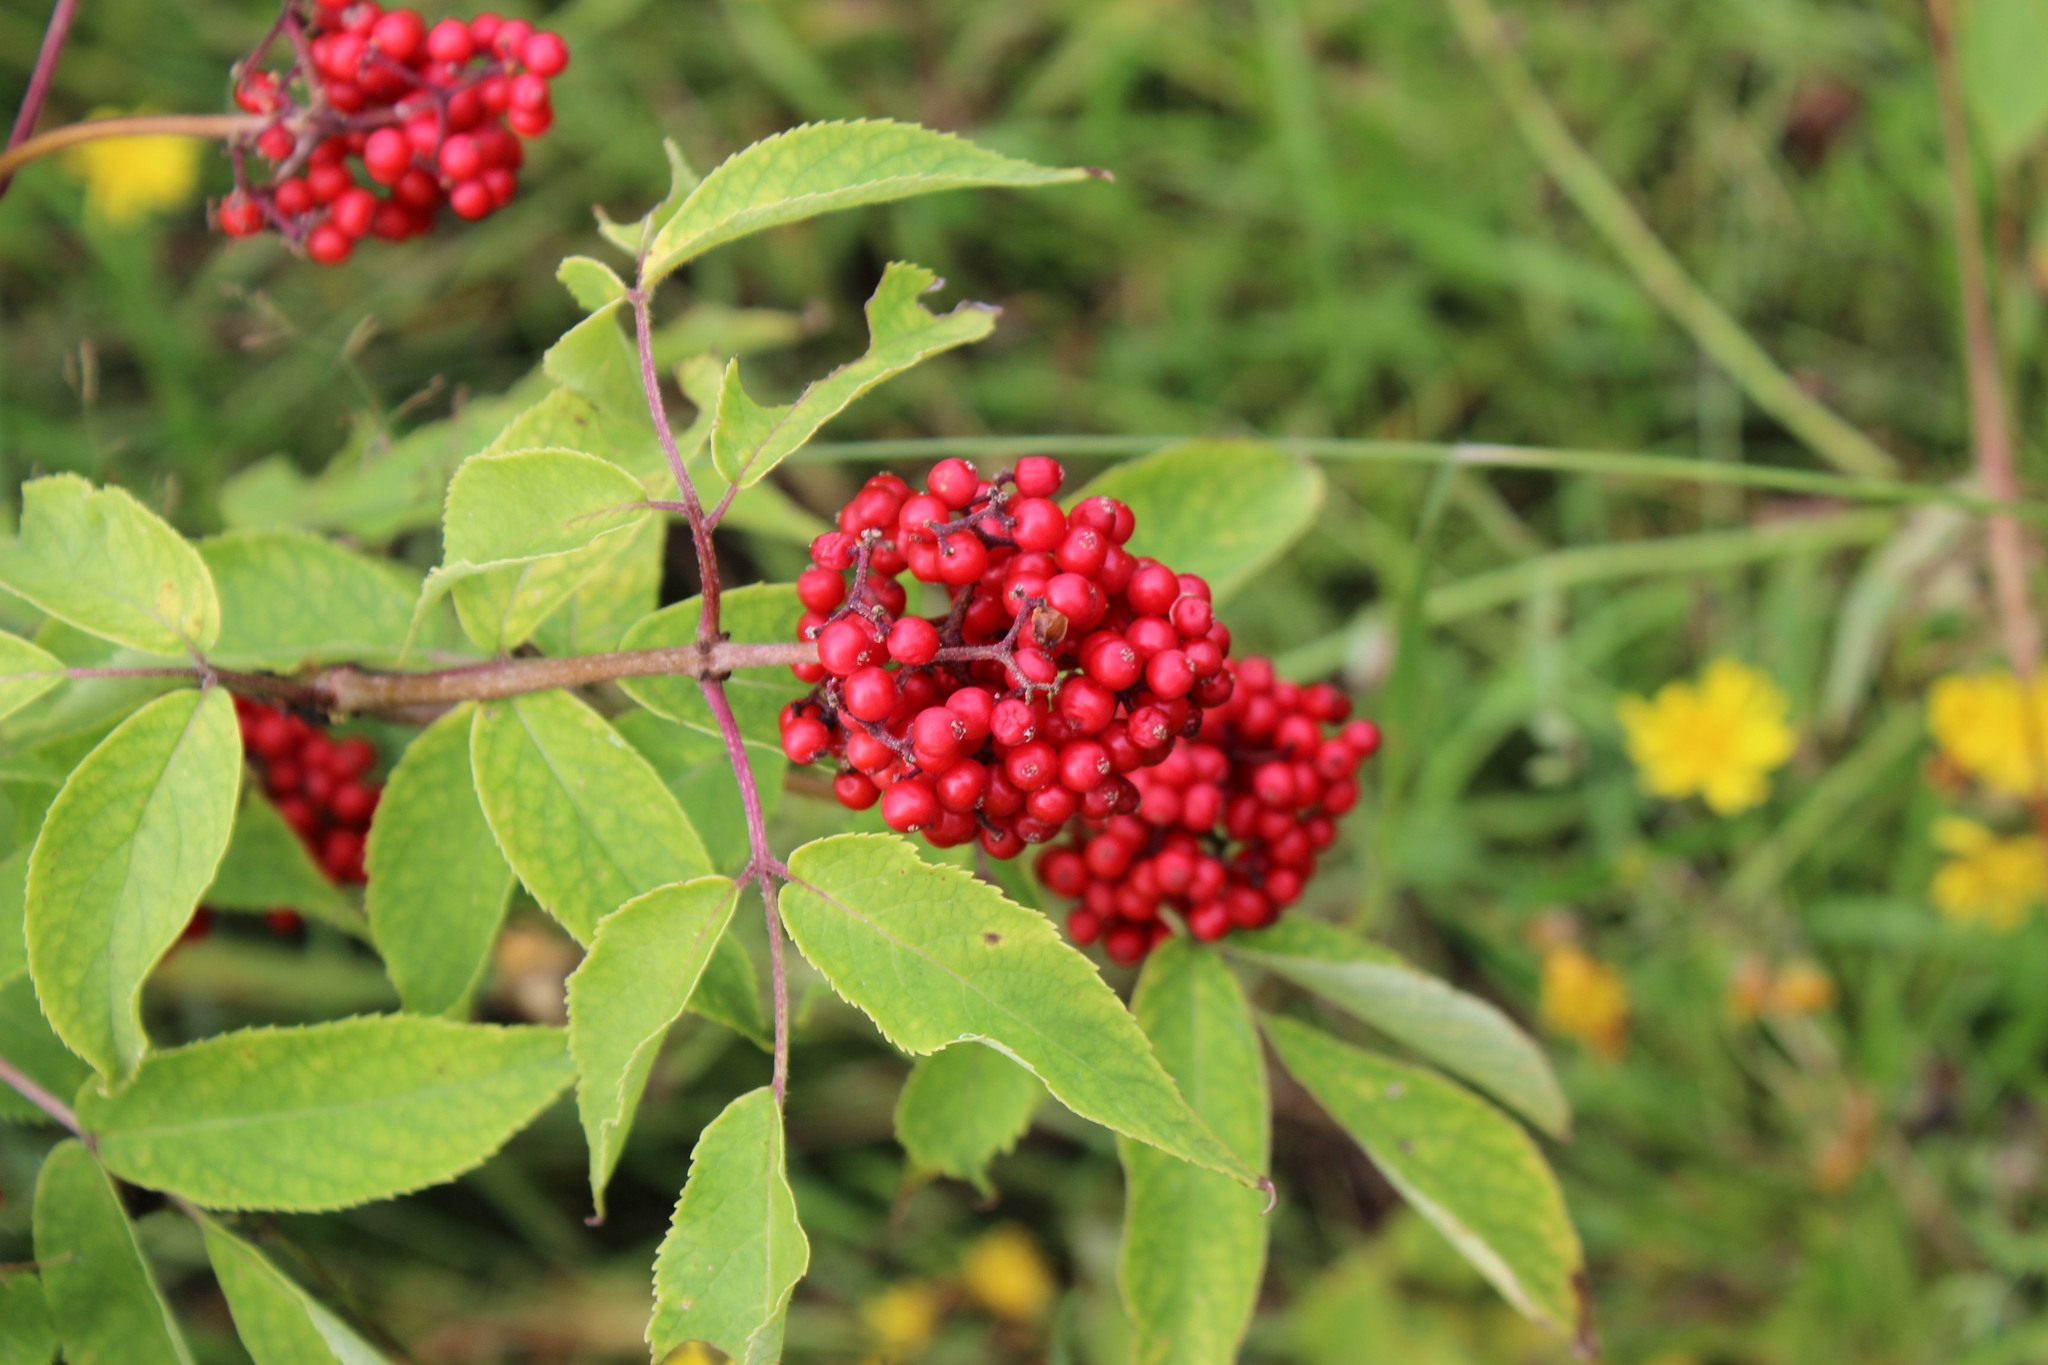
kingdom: Plantae
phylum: Tracheophyta
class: Magnoliopsida
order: Dipsacales
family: Viburnaceae
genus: Sambucus
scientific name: Sambucus sibirica
